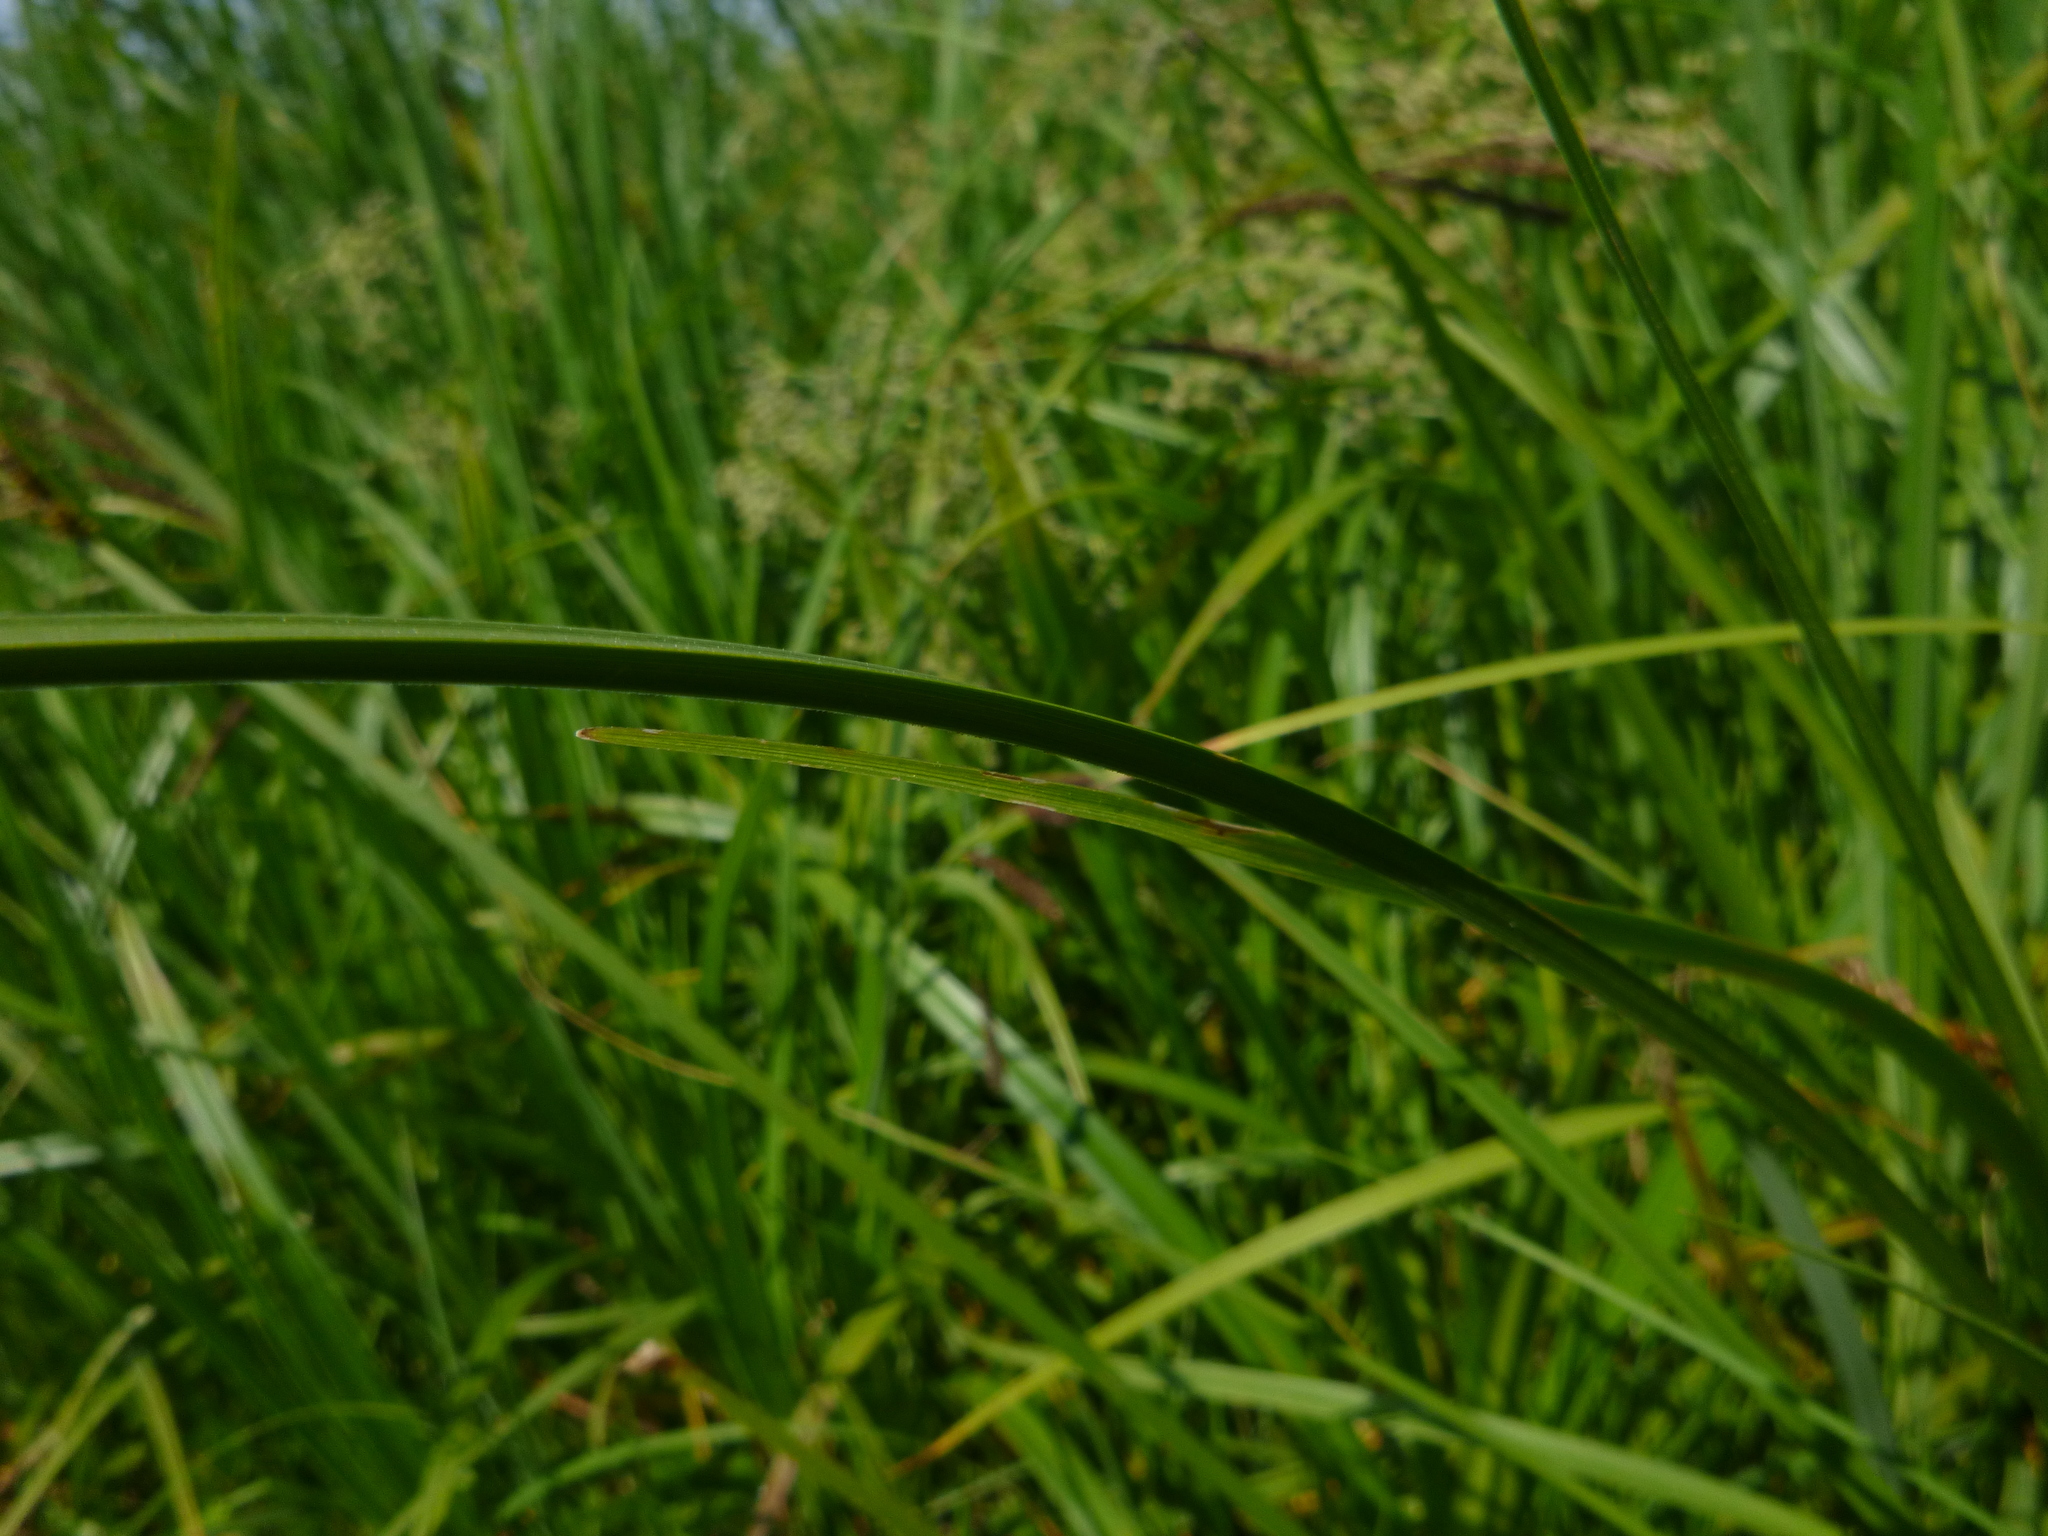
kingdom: Plantae
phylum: Tracheophyta
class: Liliopsida
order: Poales
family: Cyperaceae
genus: Carex
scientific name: Carex vulpina
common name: True fox-sedge
